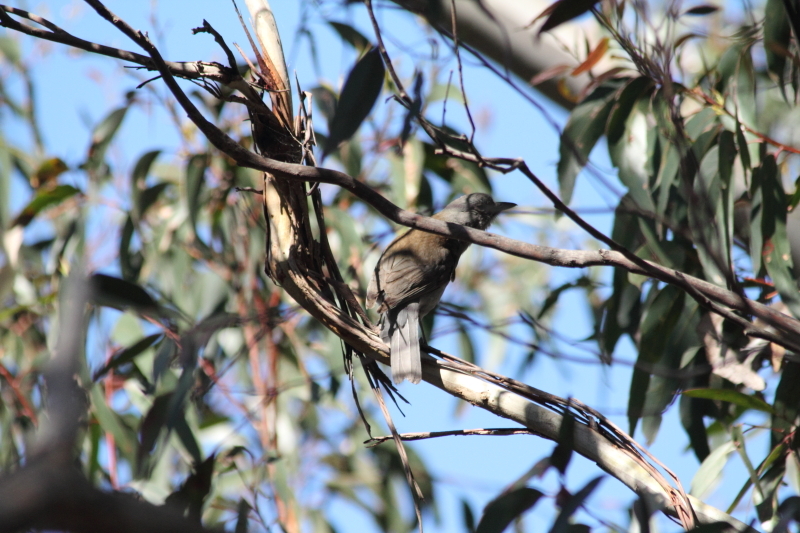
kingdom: Animalia
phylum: Chordata
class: Aves
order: Passeriformes
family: Pachycephalidae
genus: Colluricincla
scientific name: Colluricincla harmonica
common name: Grey shrikethrush
